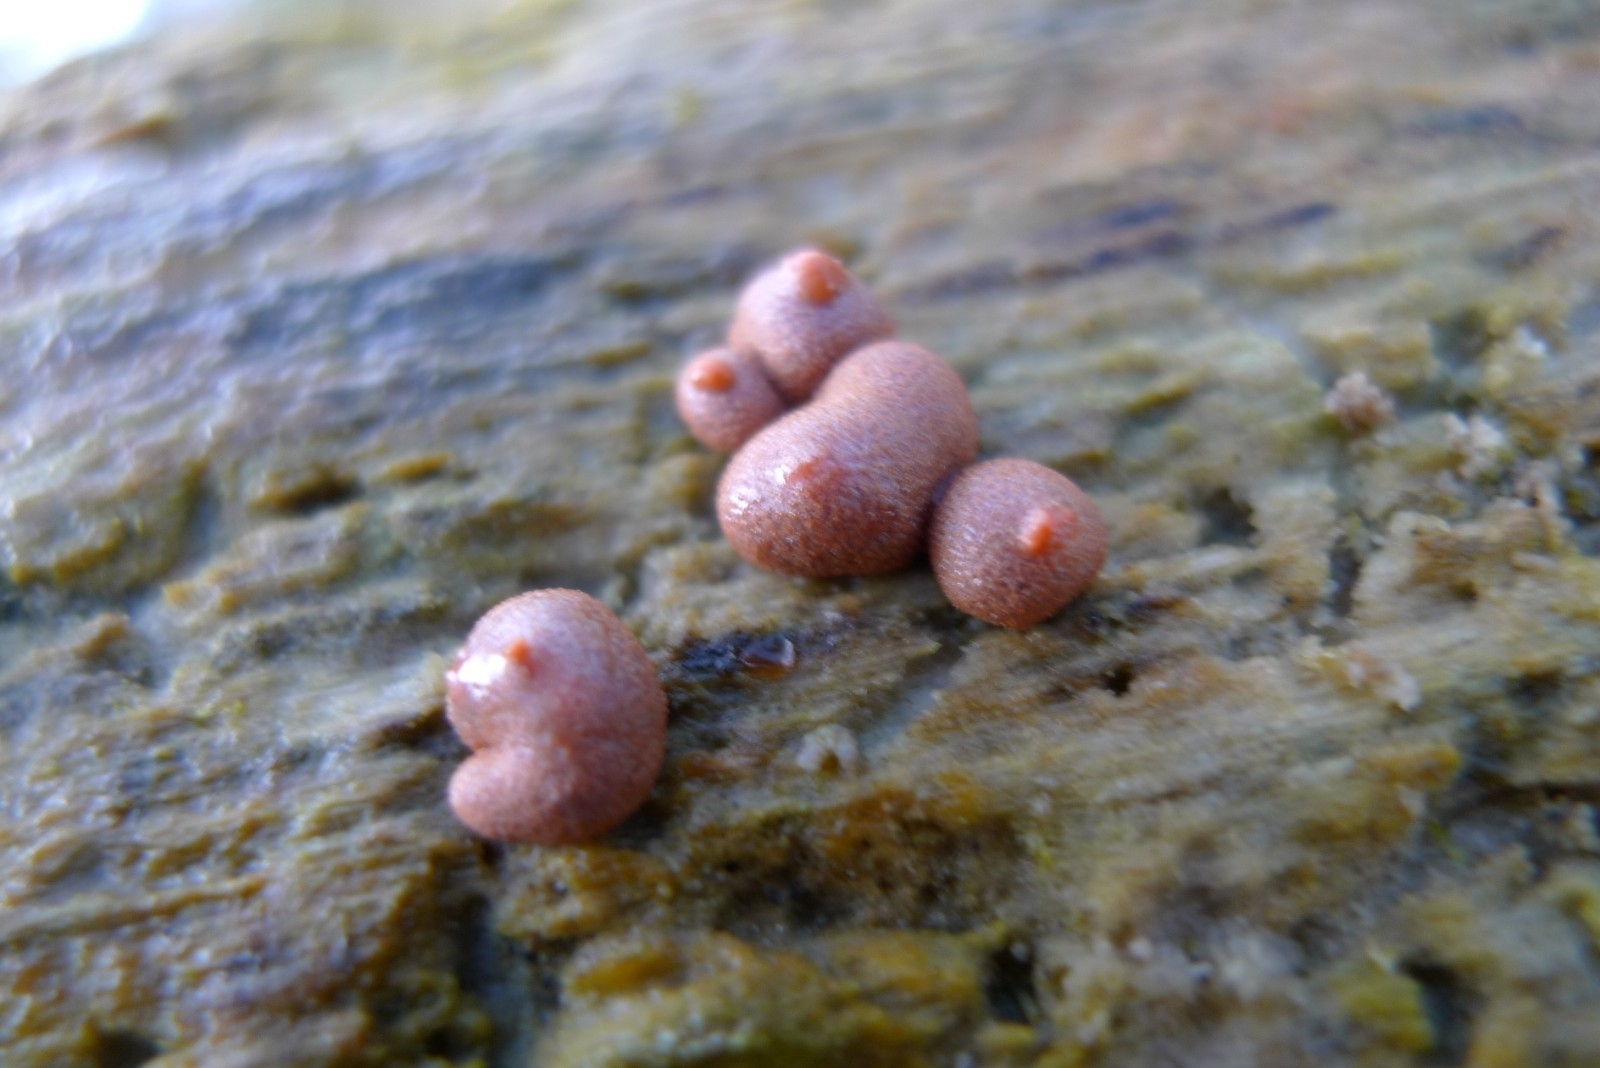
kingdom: Protozoa
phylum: Mycetozoa
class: Myxomycetes
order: Cribrariales
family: Tubiferaceae
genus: Lycogala
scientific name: Lycogala epidendrum
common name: Wolf's milk
